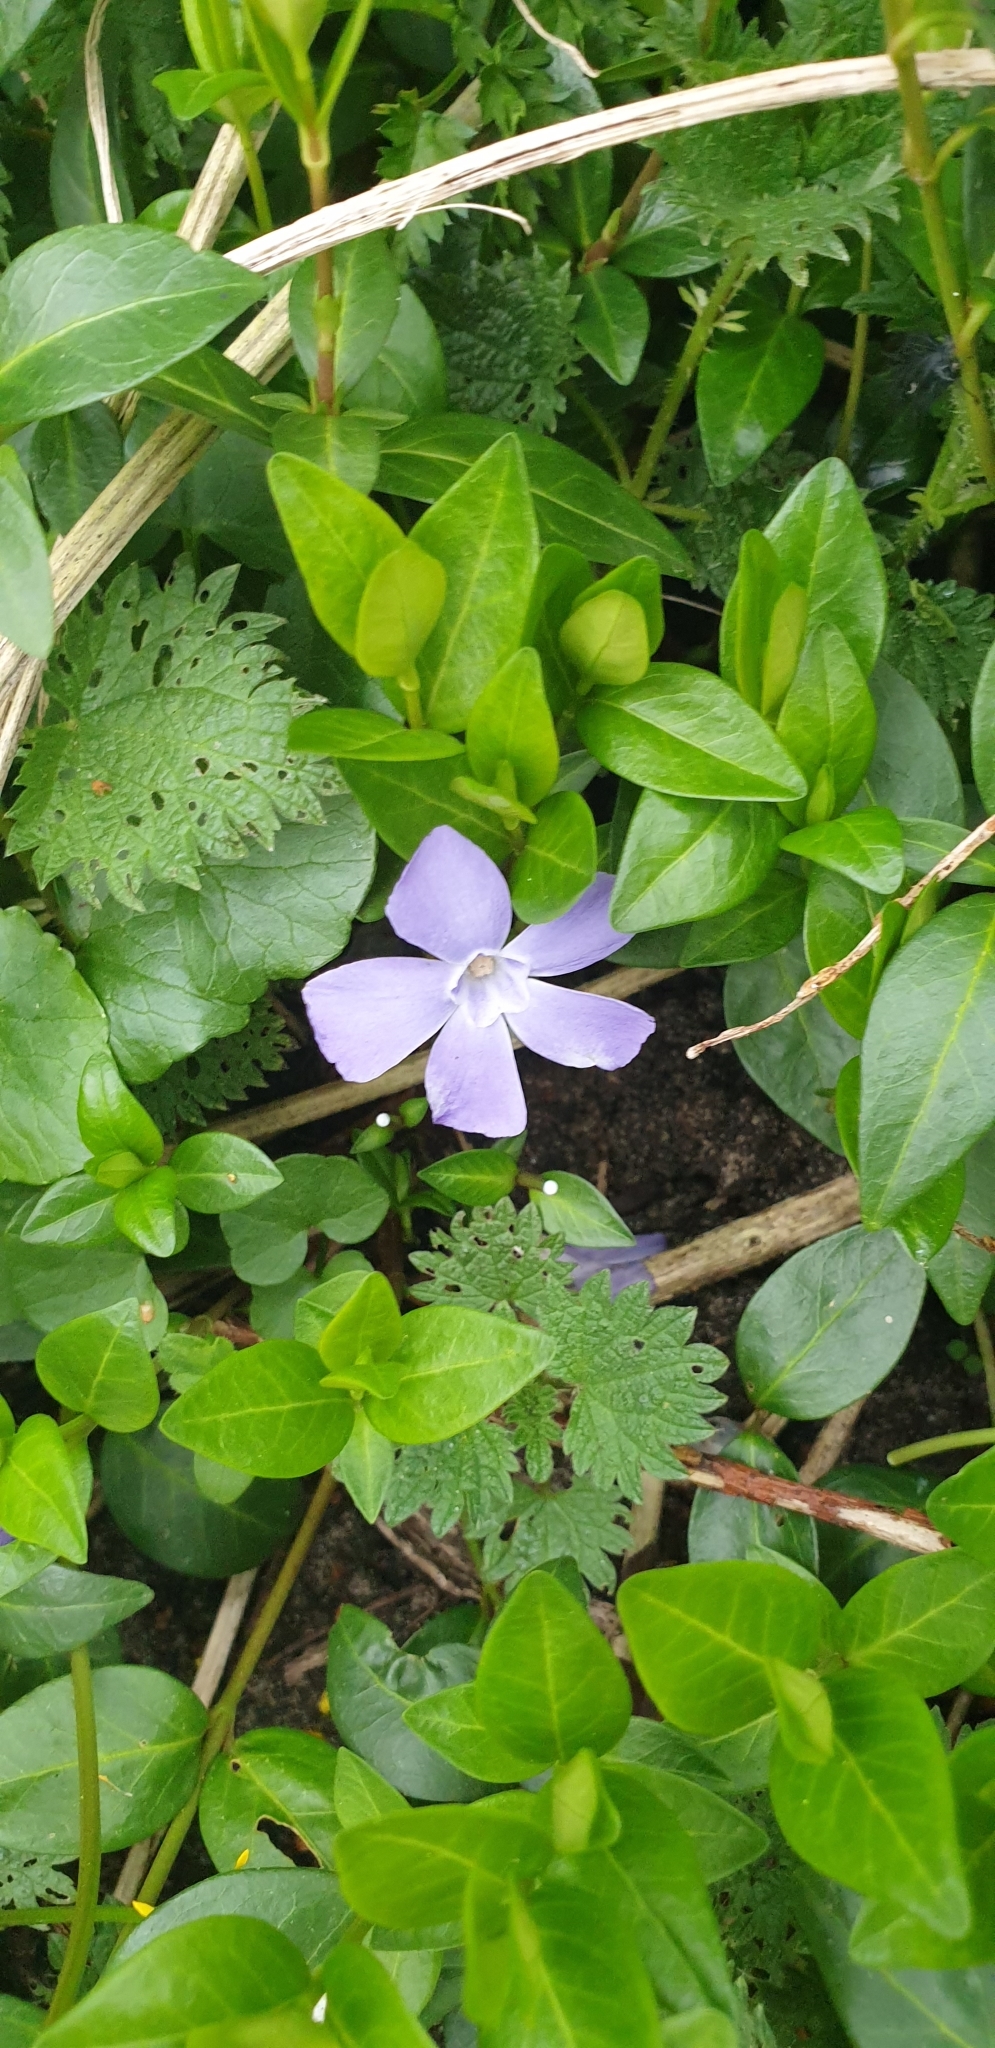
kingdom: Plantae
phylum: Tracheophyta
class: Magnoliopsida
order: Gentianales
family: Apocynaceae
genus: Vinca
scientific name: Vinca minor
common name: Lesser periwinkle
